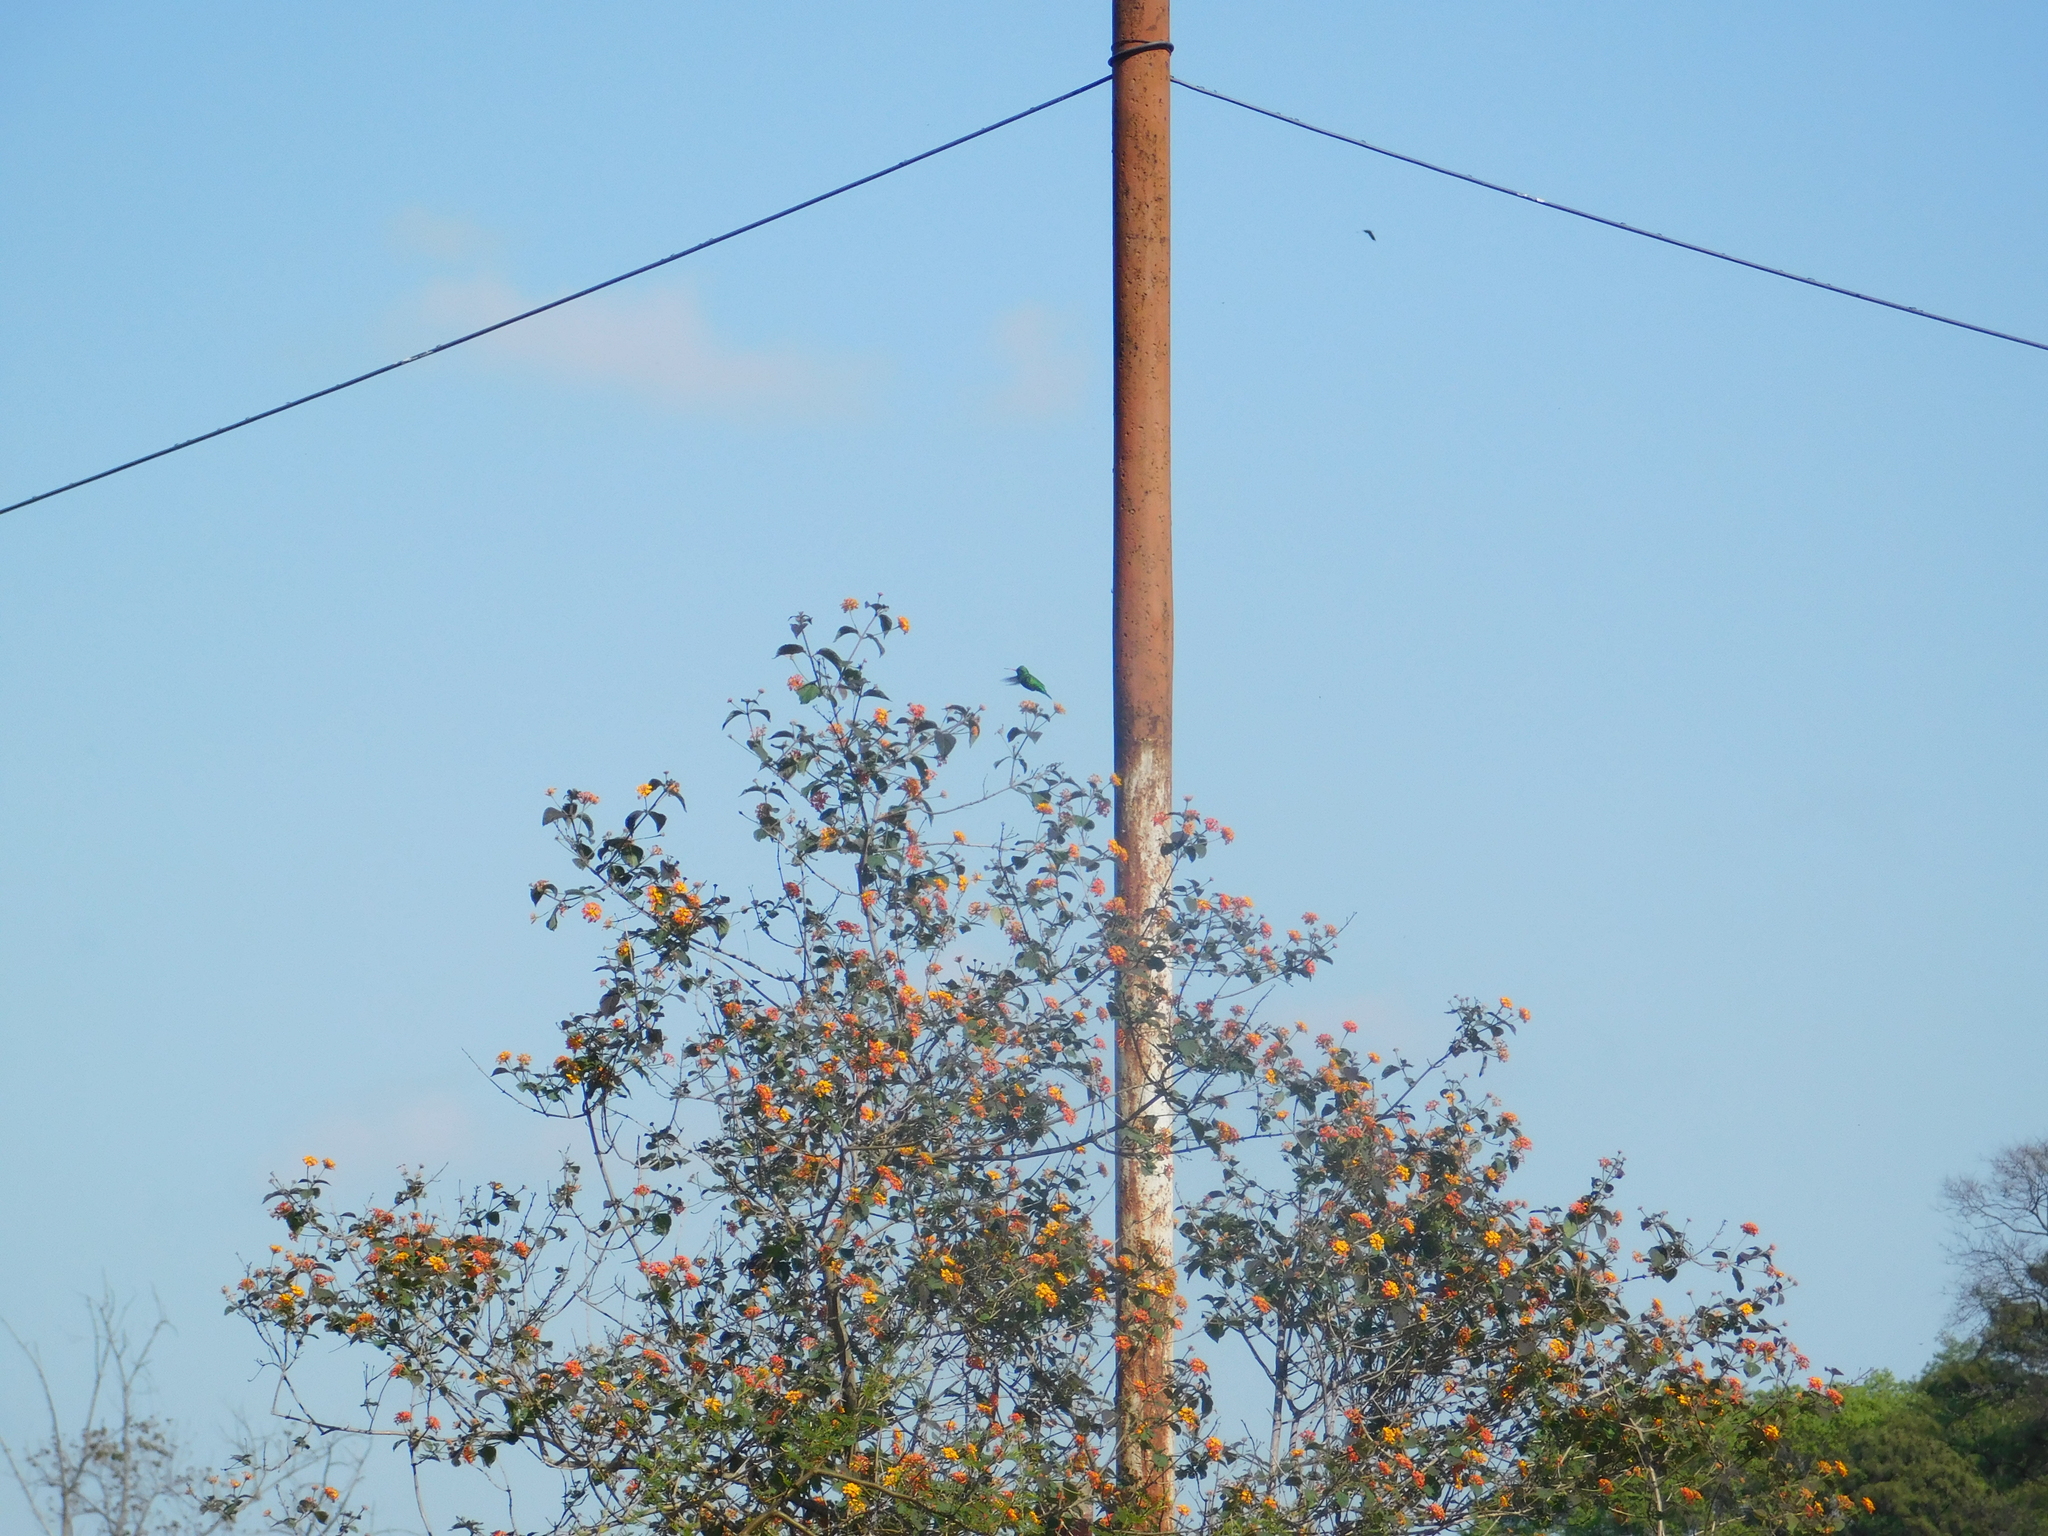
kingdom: Animalia
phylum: Chordata
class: Aves
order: Apodiformes
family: Trochilidae
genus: Chlorostilbon
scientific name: Chlorostilbon lucidus
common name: Glittering-bellied emerald
